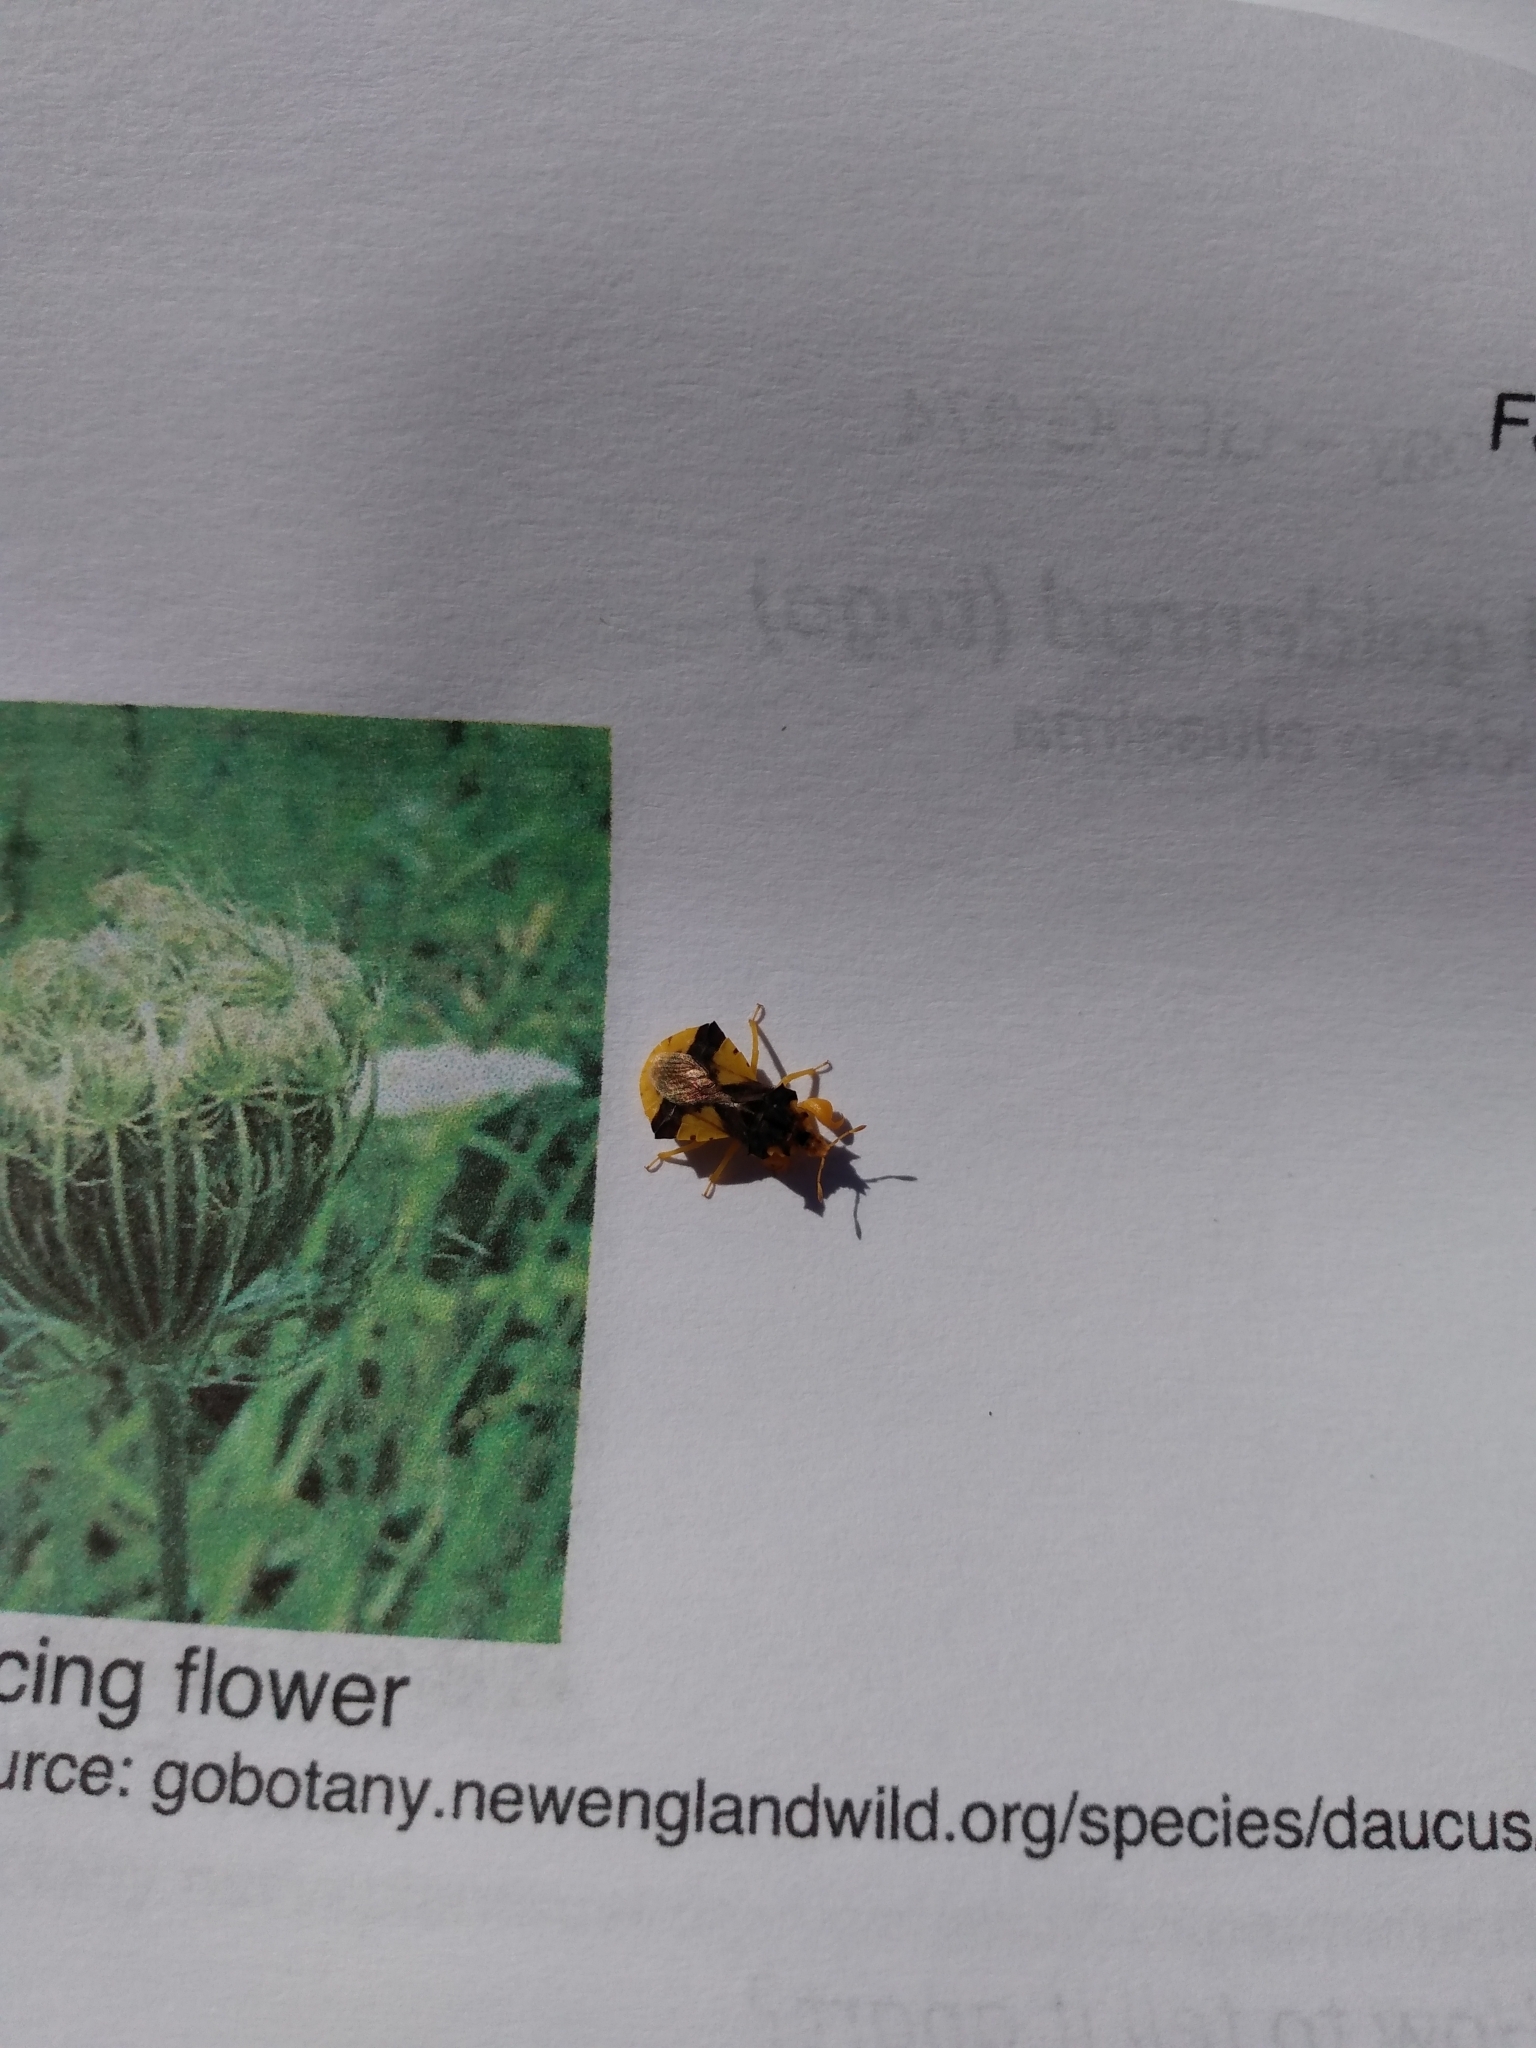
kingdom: Animalia
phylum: Arthropoda
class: Insecta
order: Hemiptera
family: Reduviidae
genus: Phymata
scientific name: Phymata americana
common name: Jagged ambush bug
